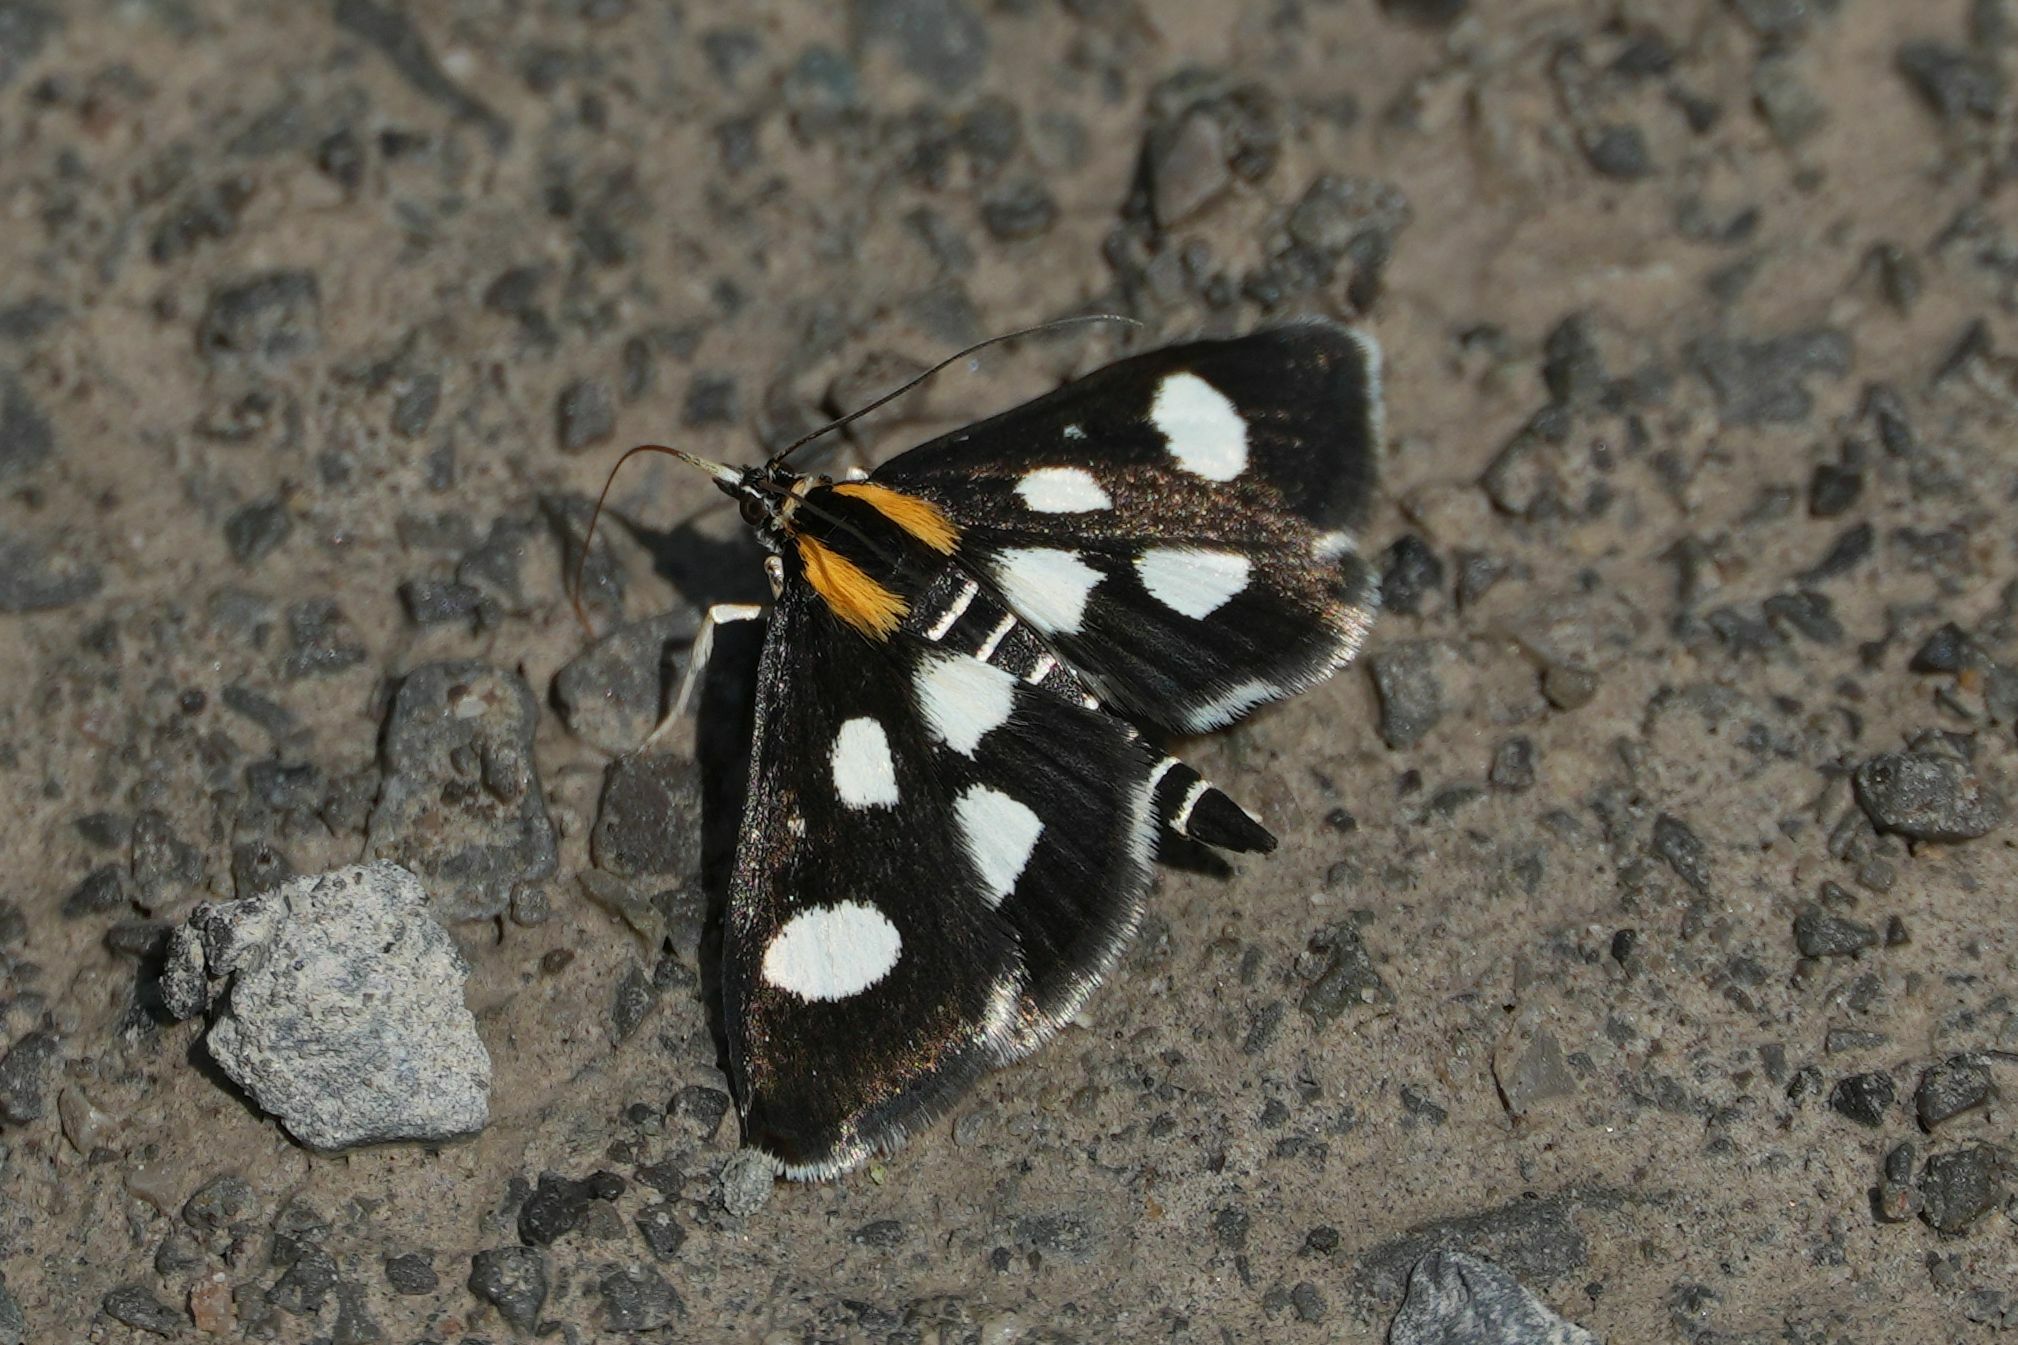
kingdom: Animalia
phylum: Arthropoda
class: Insecta
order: Lepidoptera
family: Crambidae
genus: Anania
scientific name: Anania funebris
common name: White-spotted sable moth
